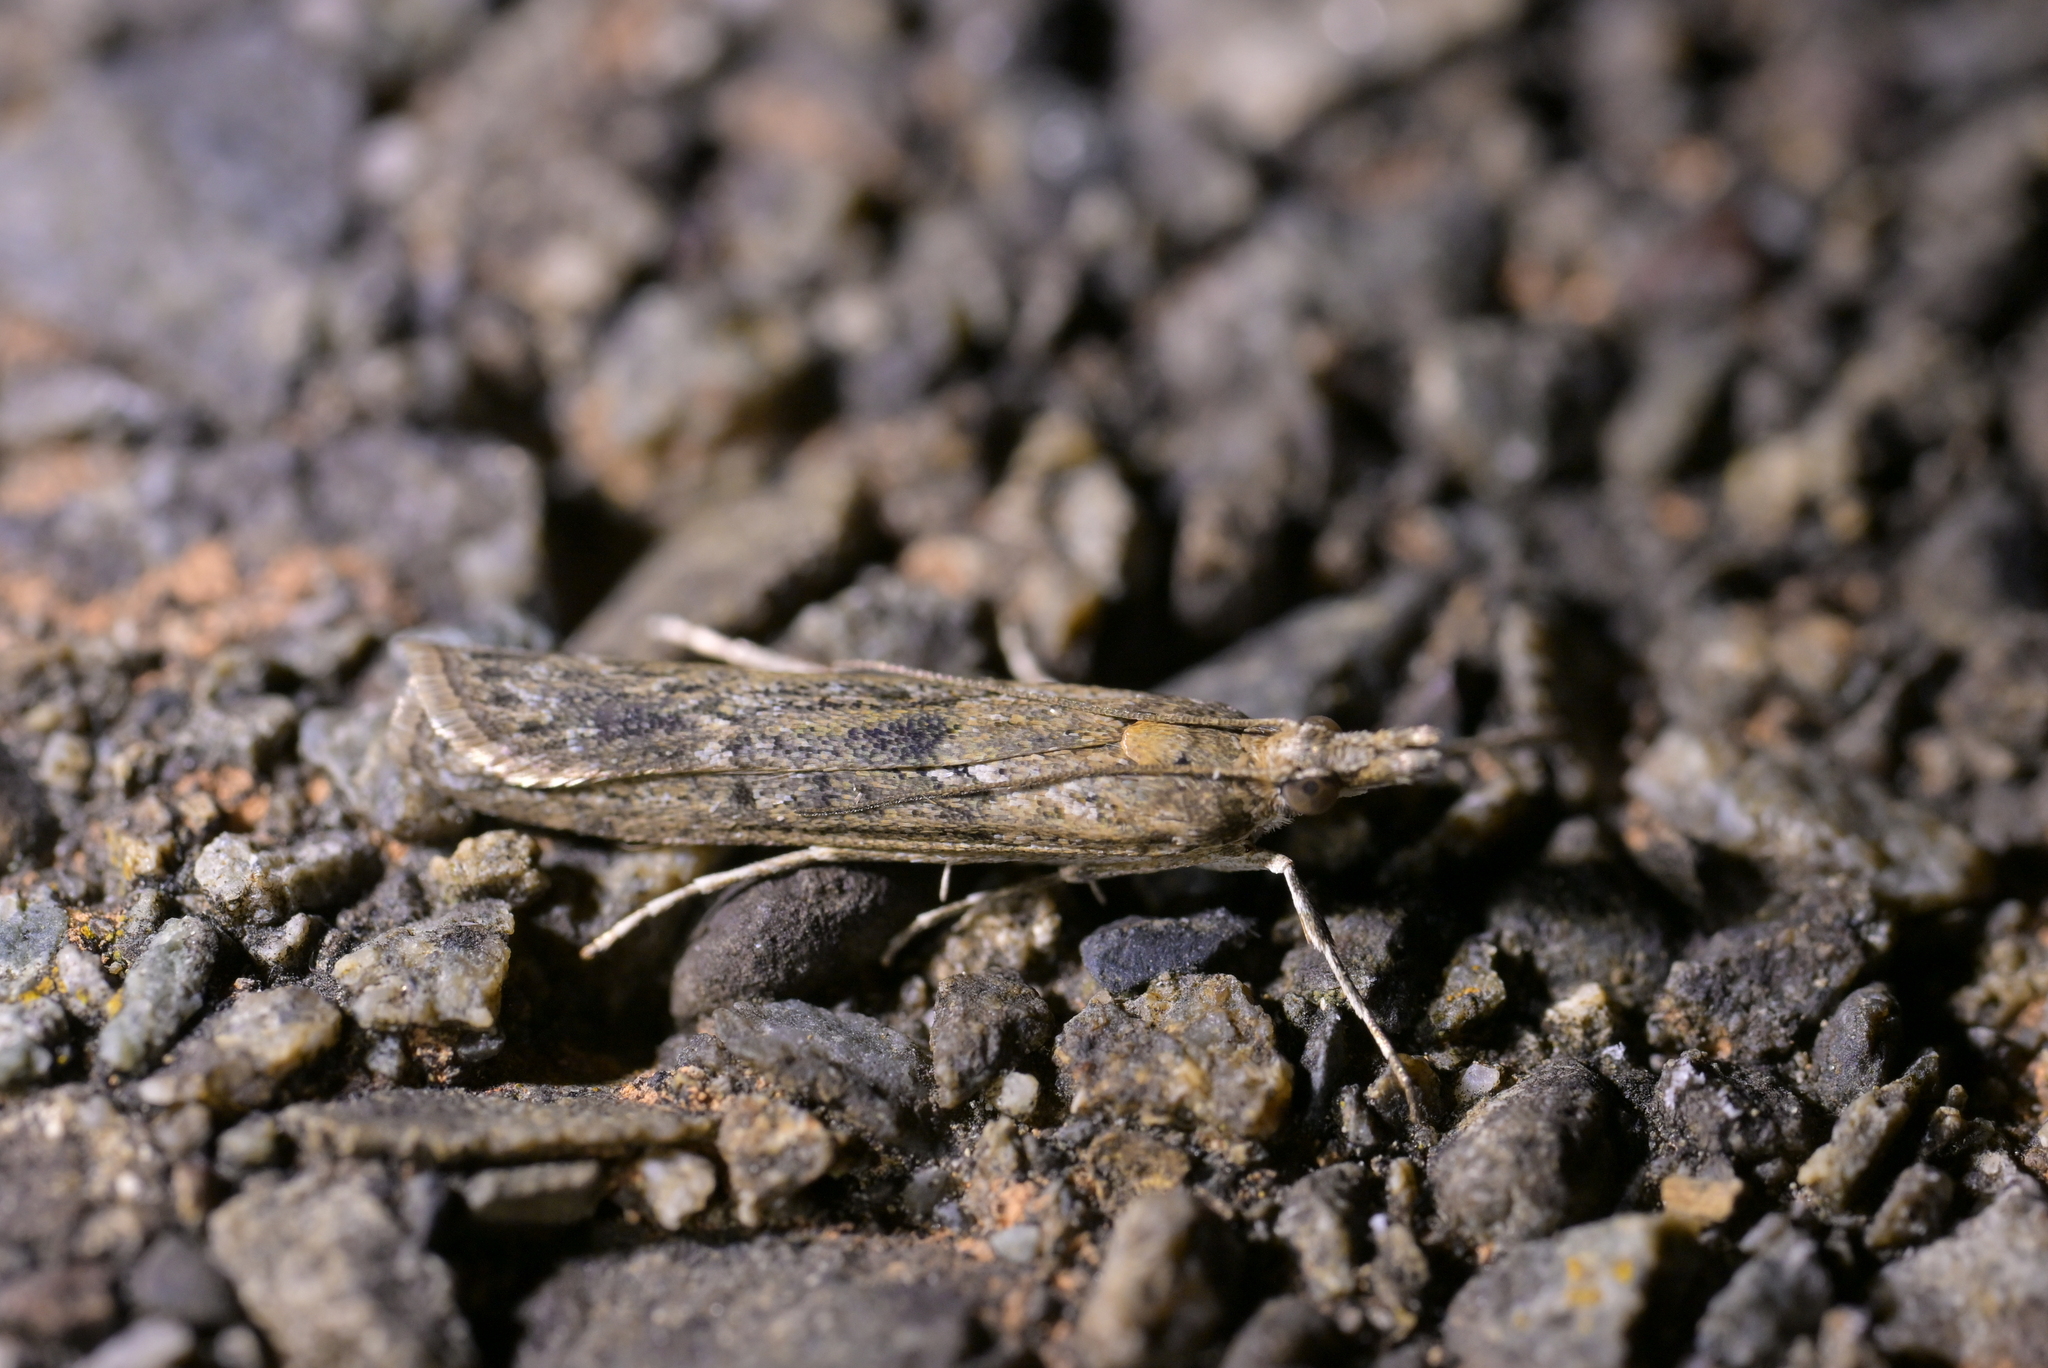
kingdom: Animalia
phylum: Arthropoda
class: Insecta
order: Lepidoptera
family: Crambidae
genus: Eudonia
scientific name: Eudonia leptalea
